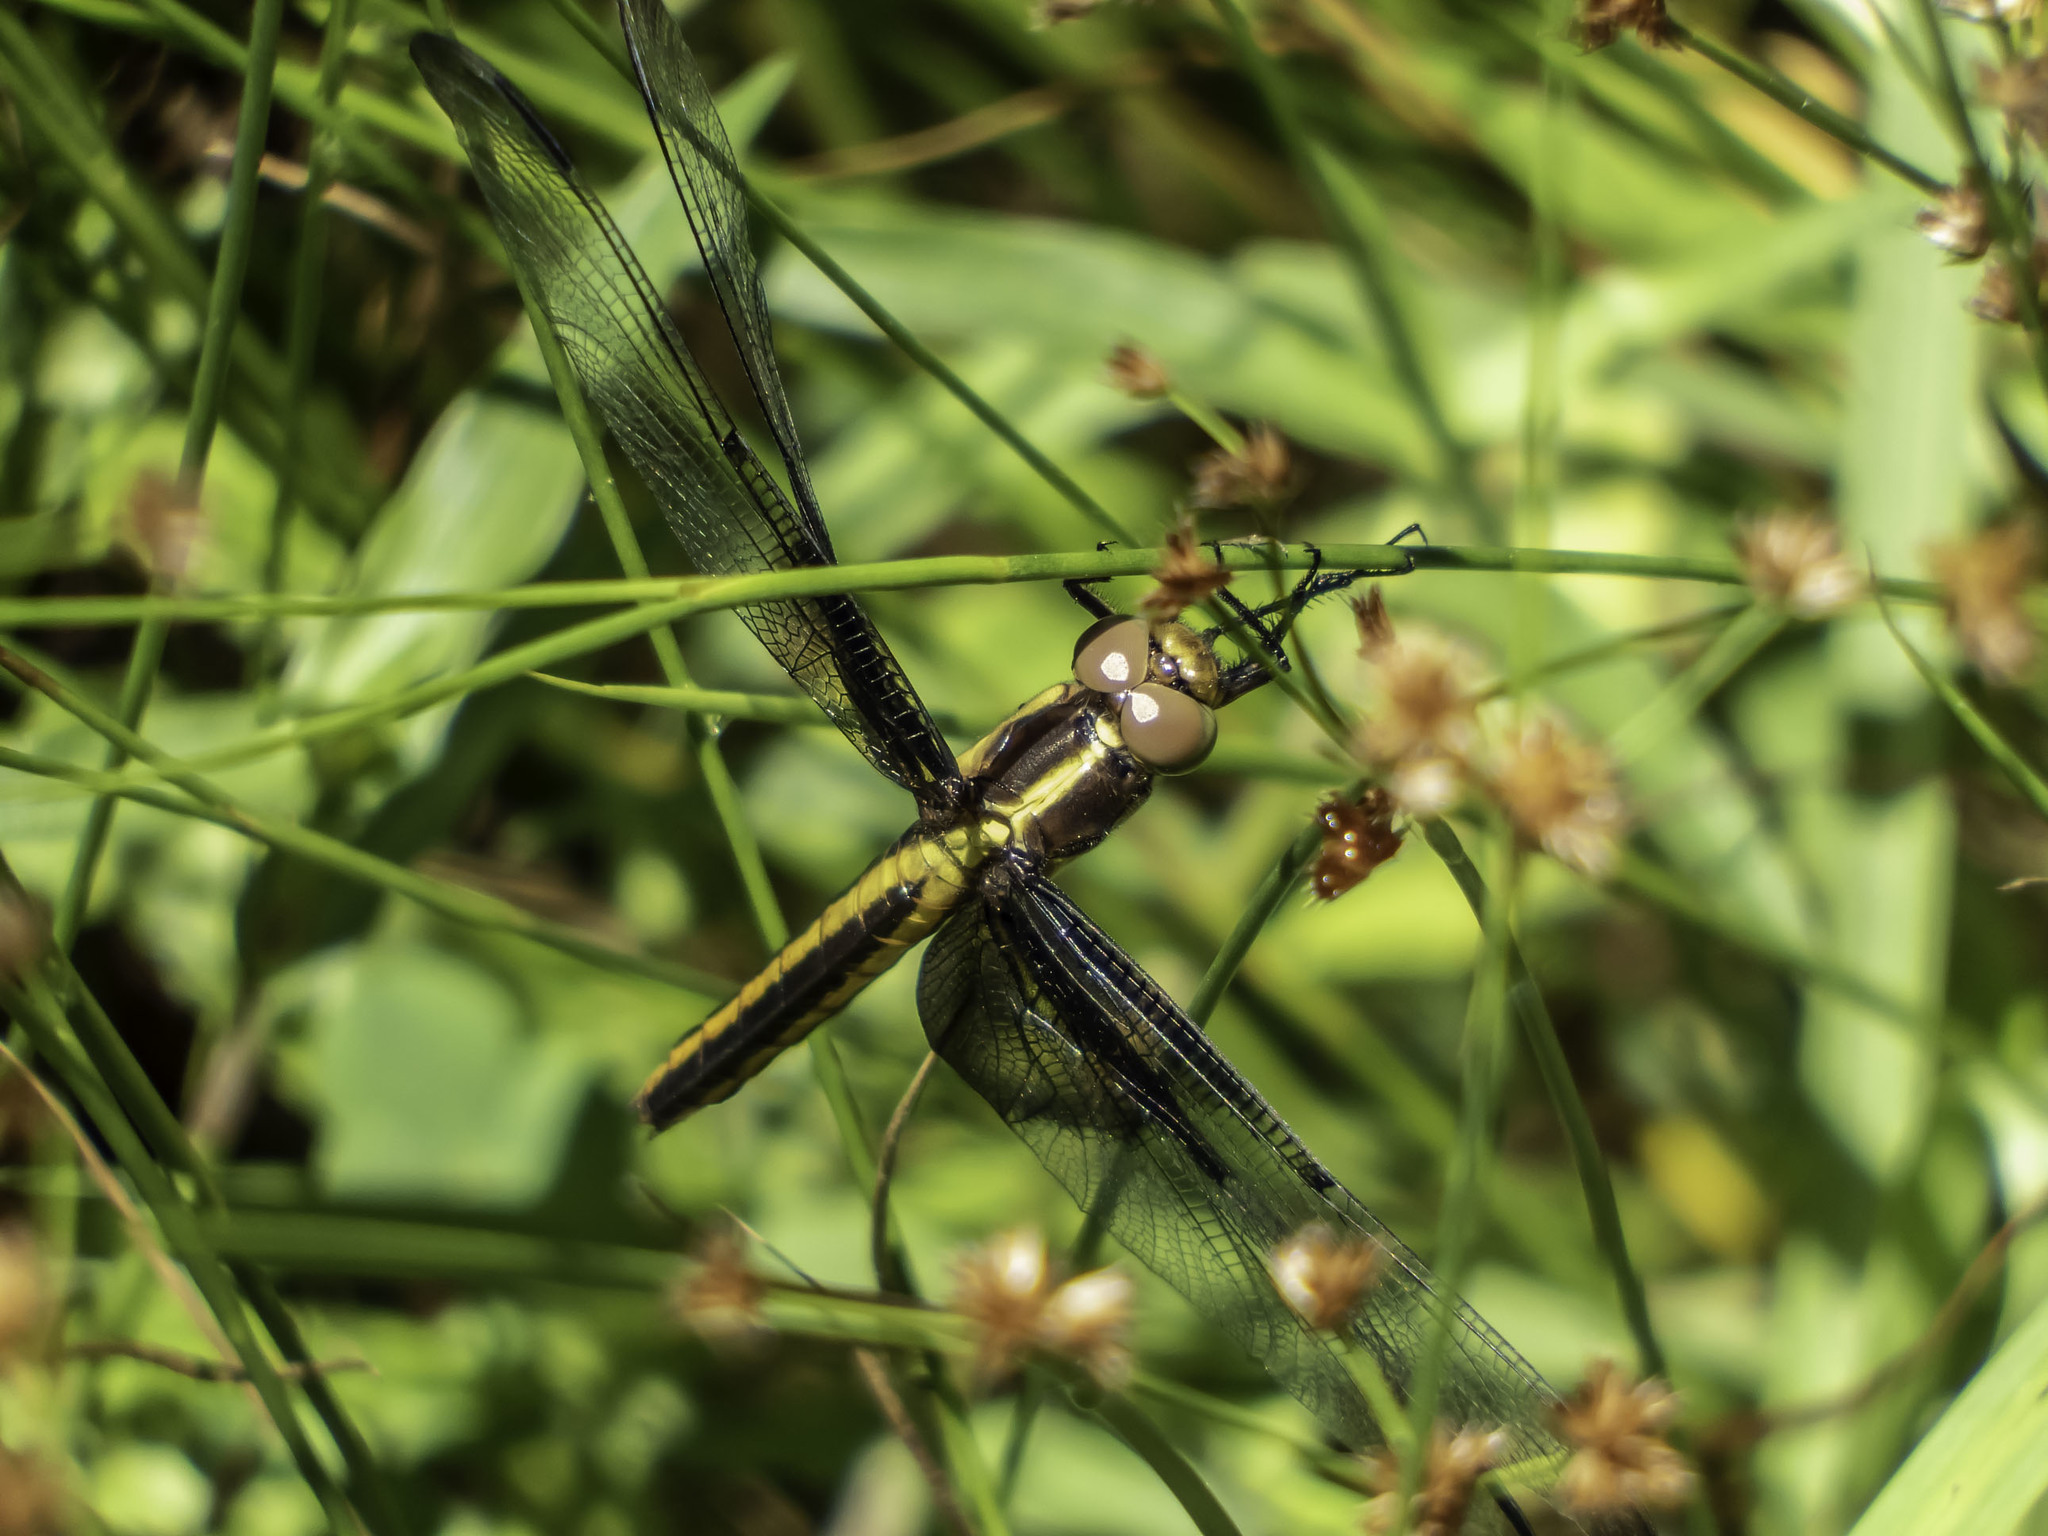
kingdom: Animalia
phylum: Arthropoda
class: Insecta
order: Odonata
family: Libellulidae
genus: Libellula
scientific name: Libellula luctuosa
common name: Widow skimmer
